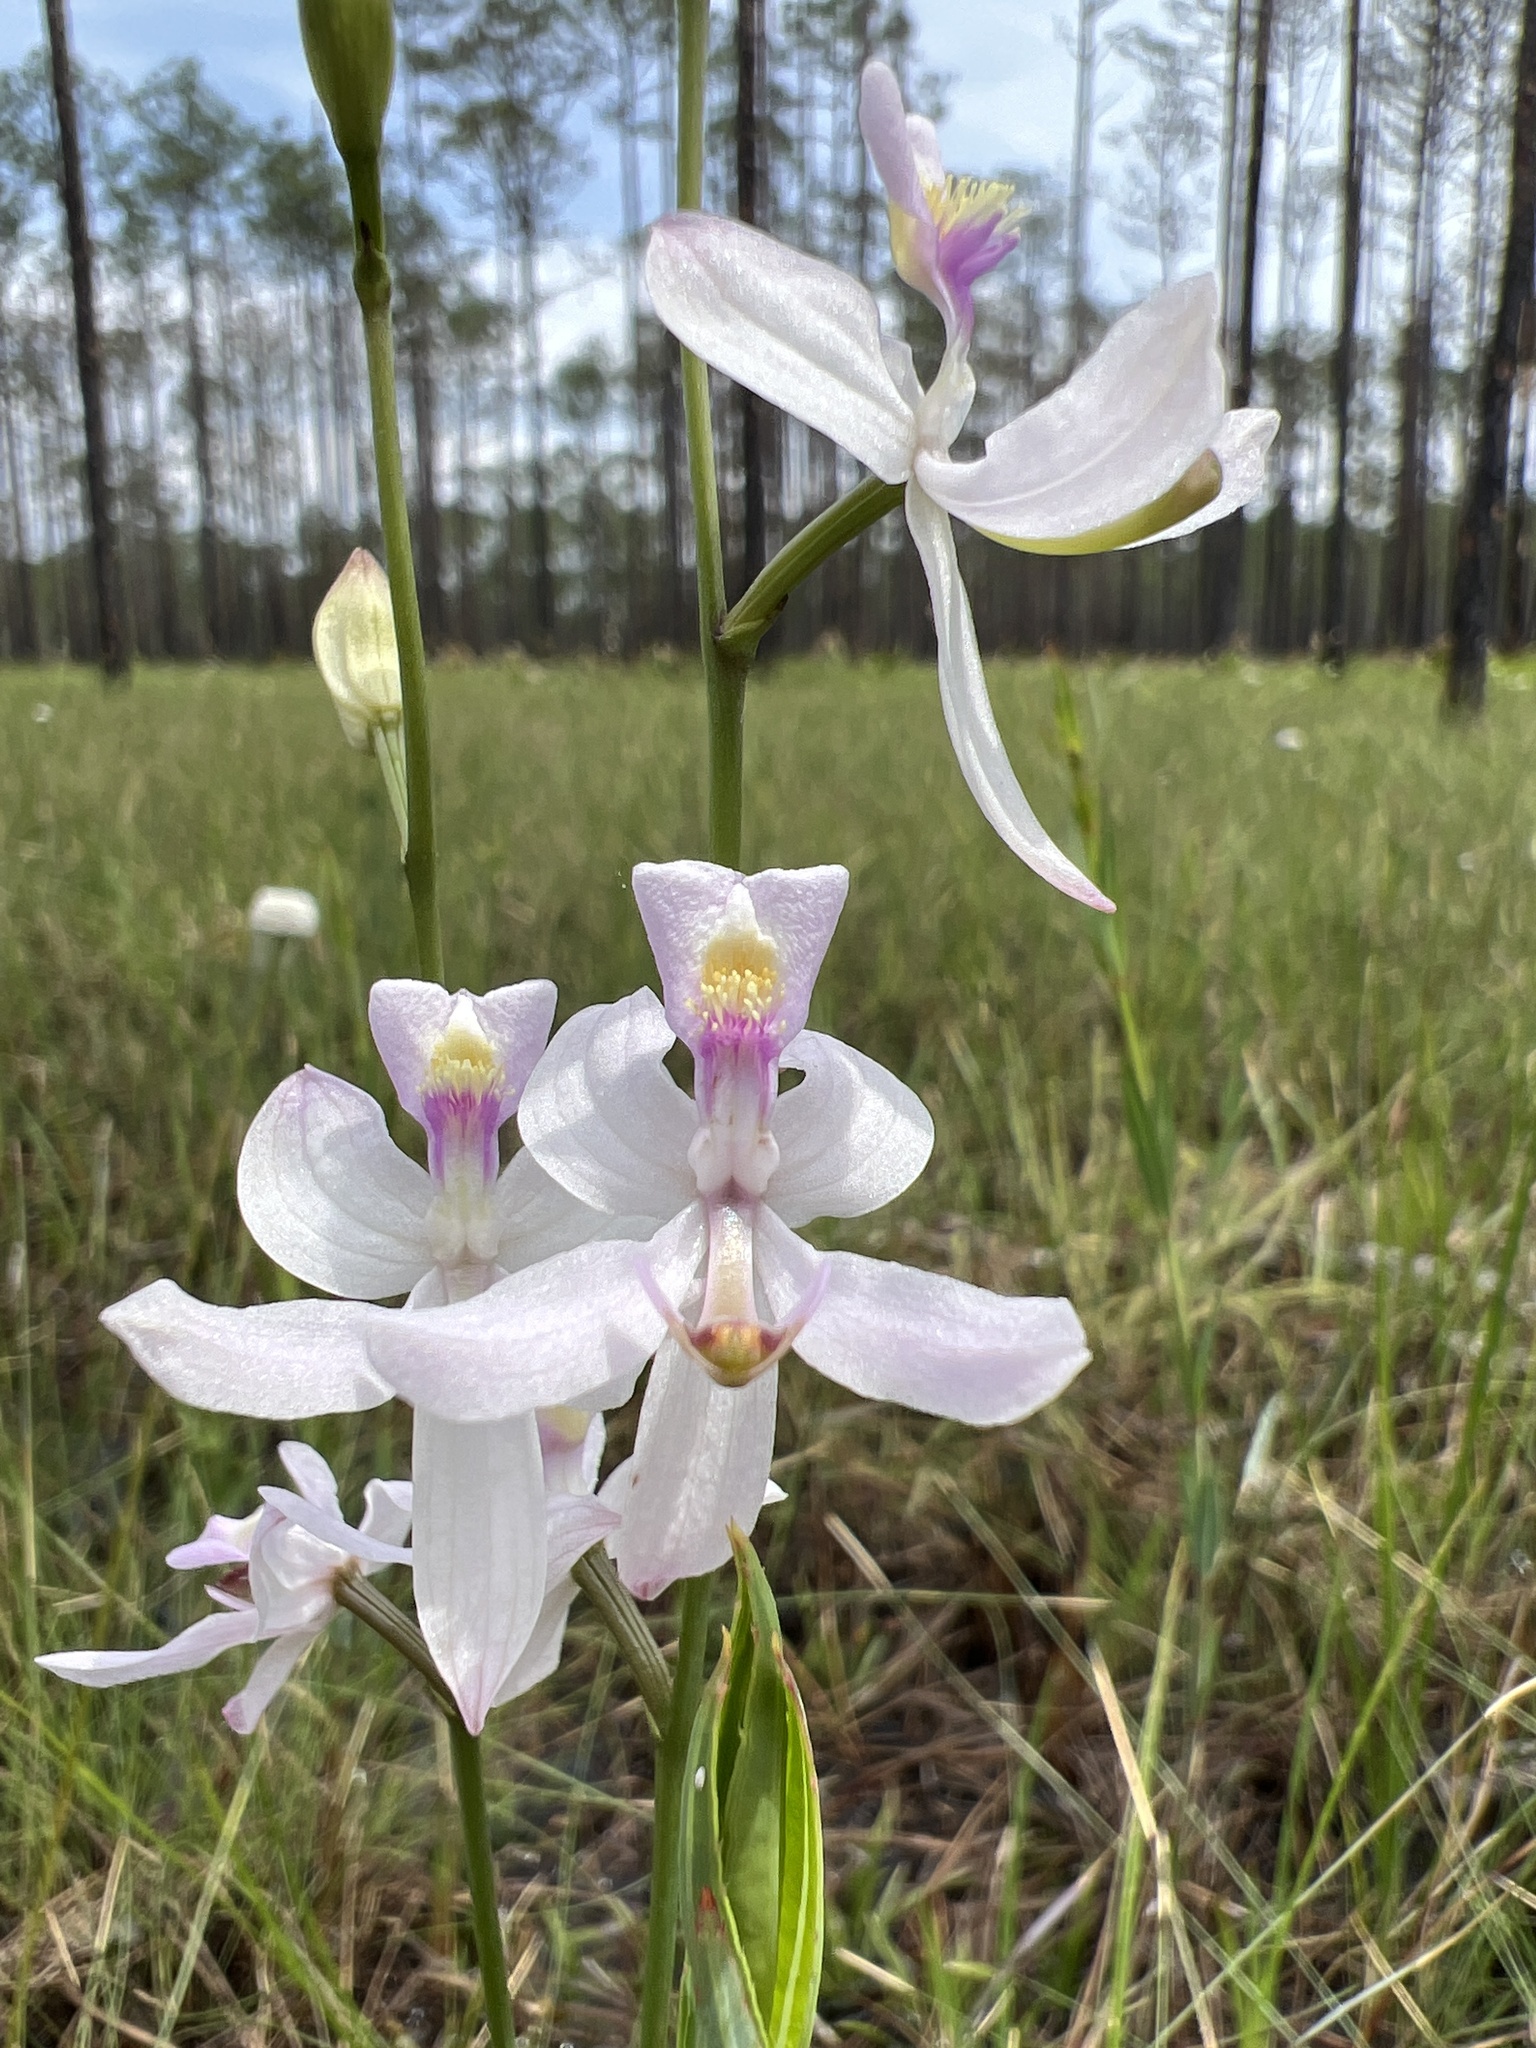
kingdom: Plantae
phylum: Tracheophyta
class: Liliopsida
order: Asparagales
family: Orchidaceae
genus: Calopogon
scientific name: Calopogon pallidus
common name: Pale grasspink
